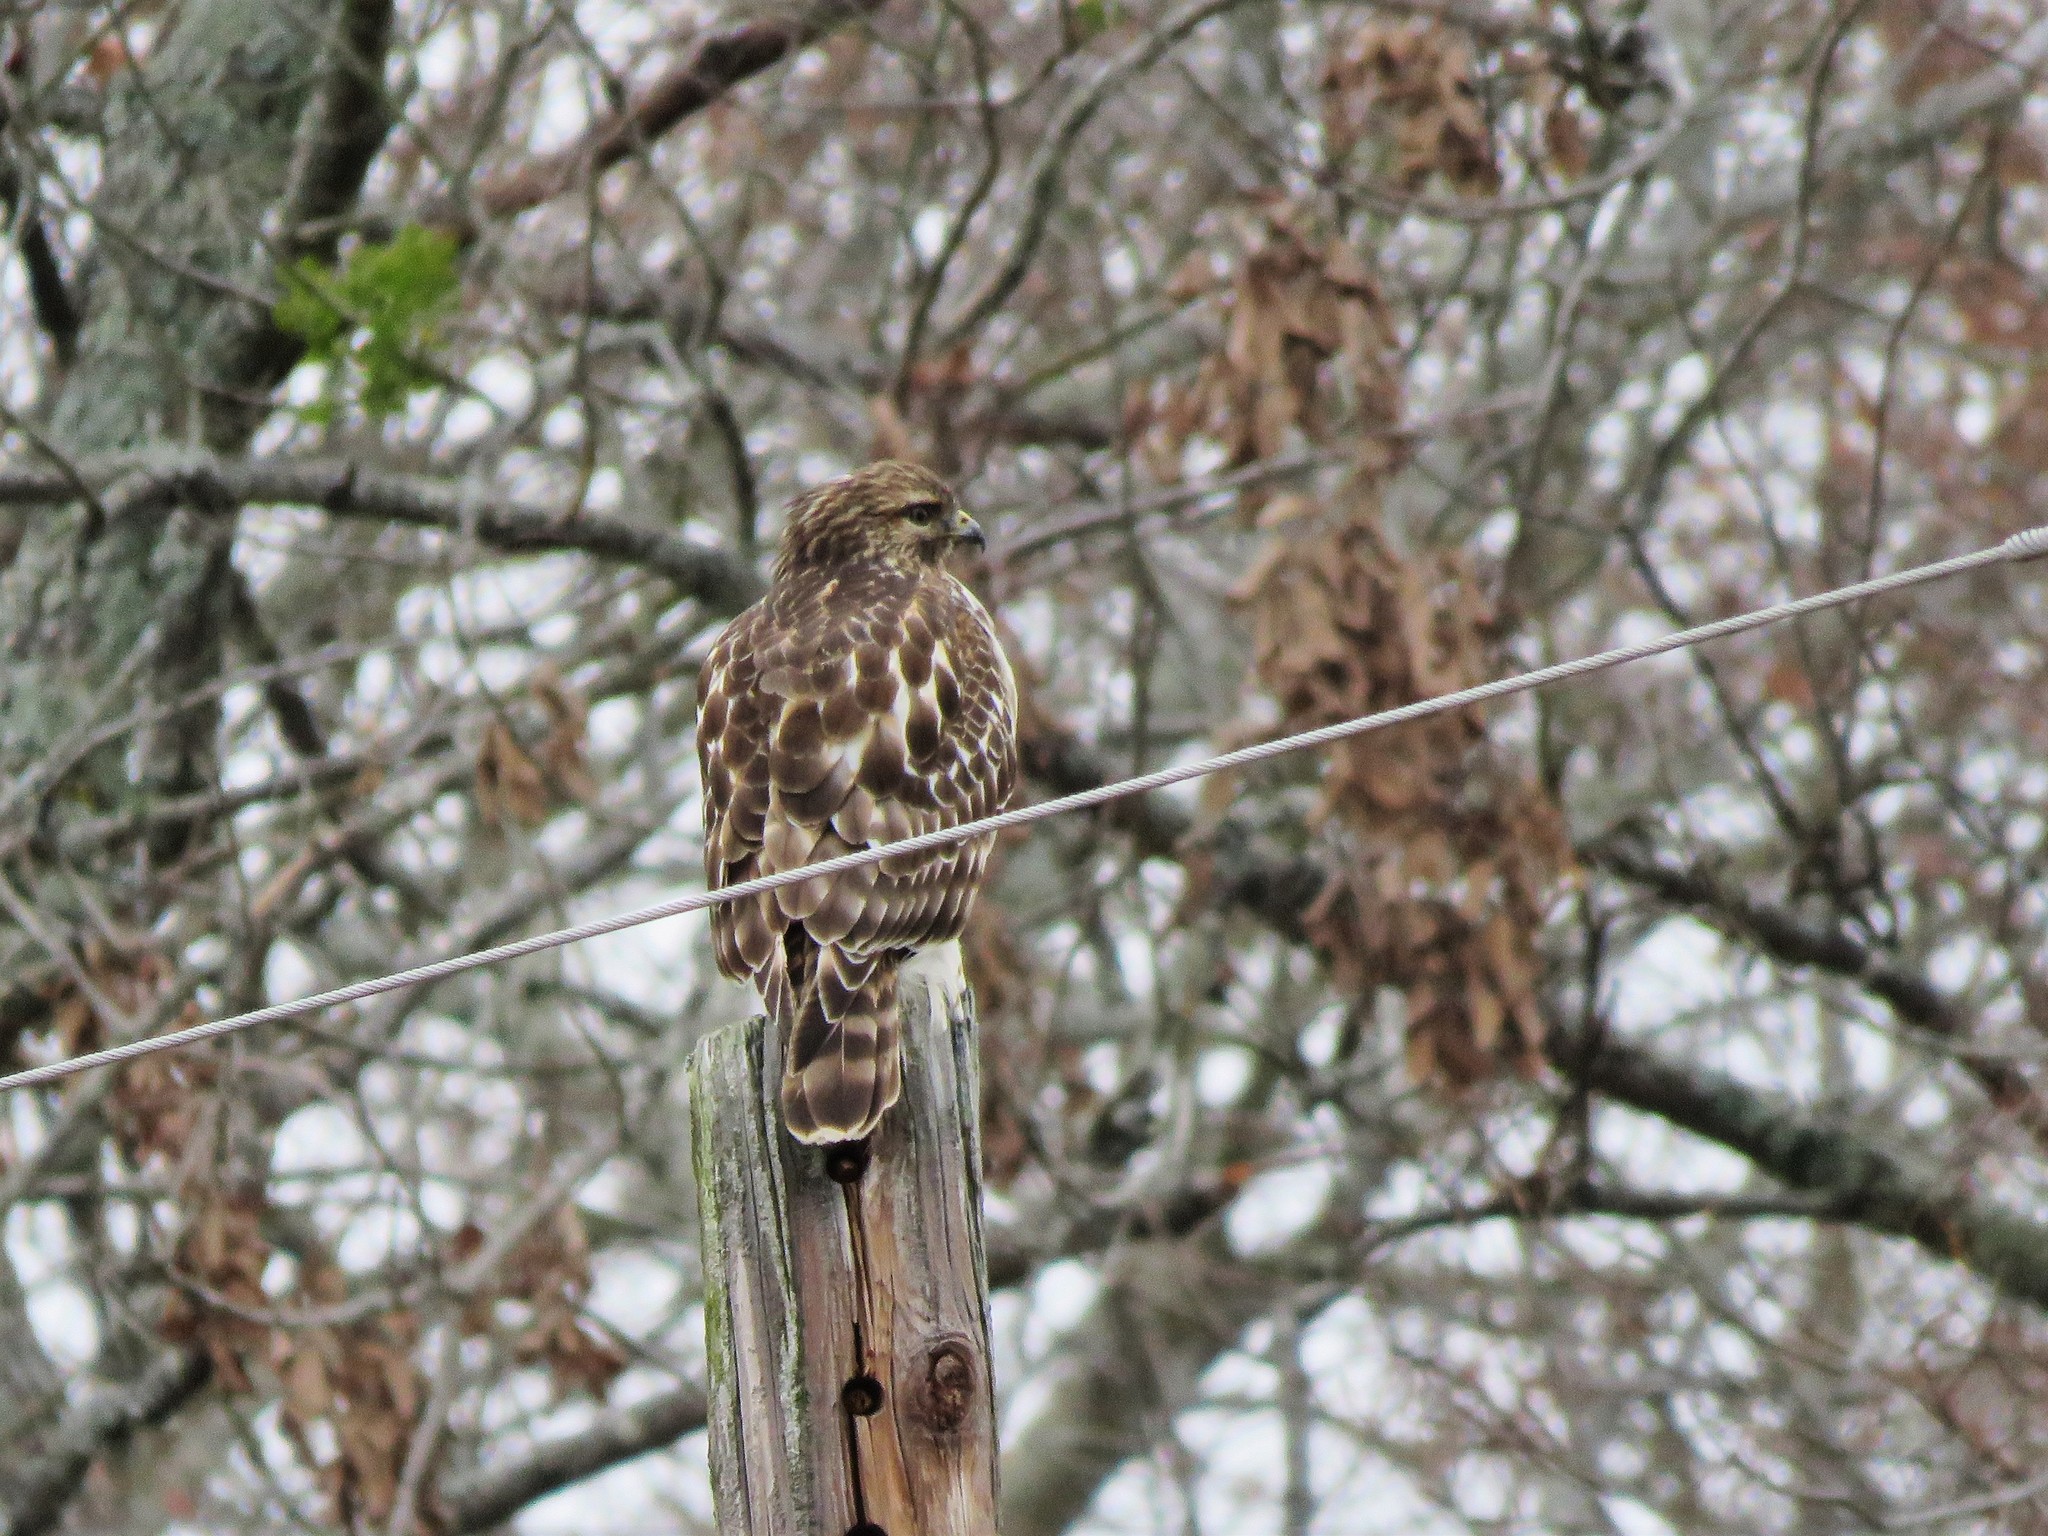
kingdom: Animalia
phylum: Chordata
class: Aves
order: Accipitriformes
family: Accipitridae
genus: Buteo
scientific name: Buteo lineatus
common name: Red-shouldered hawk
